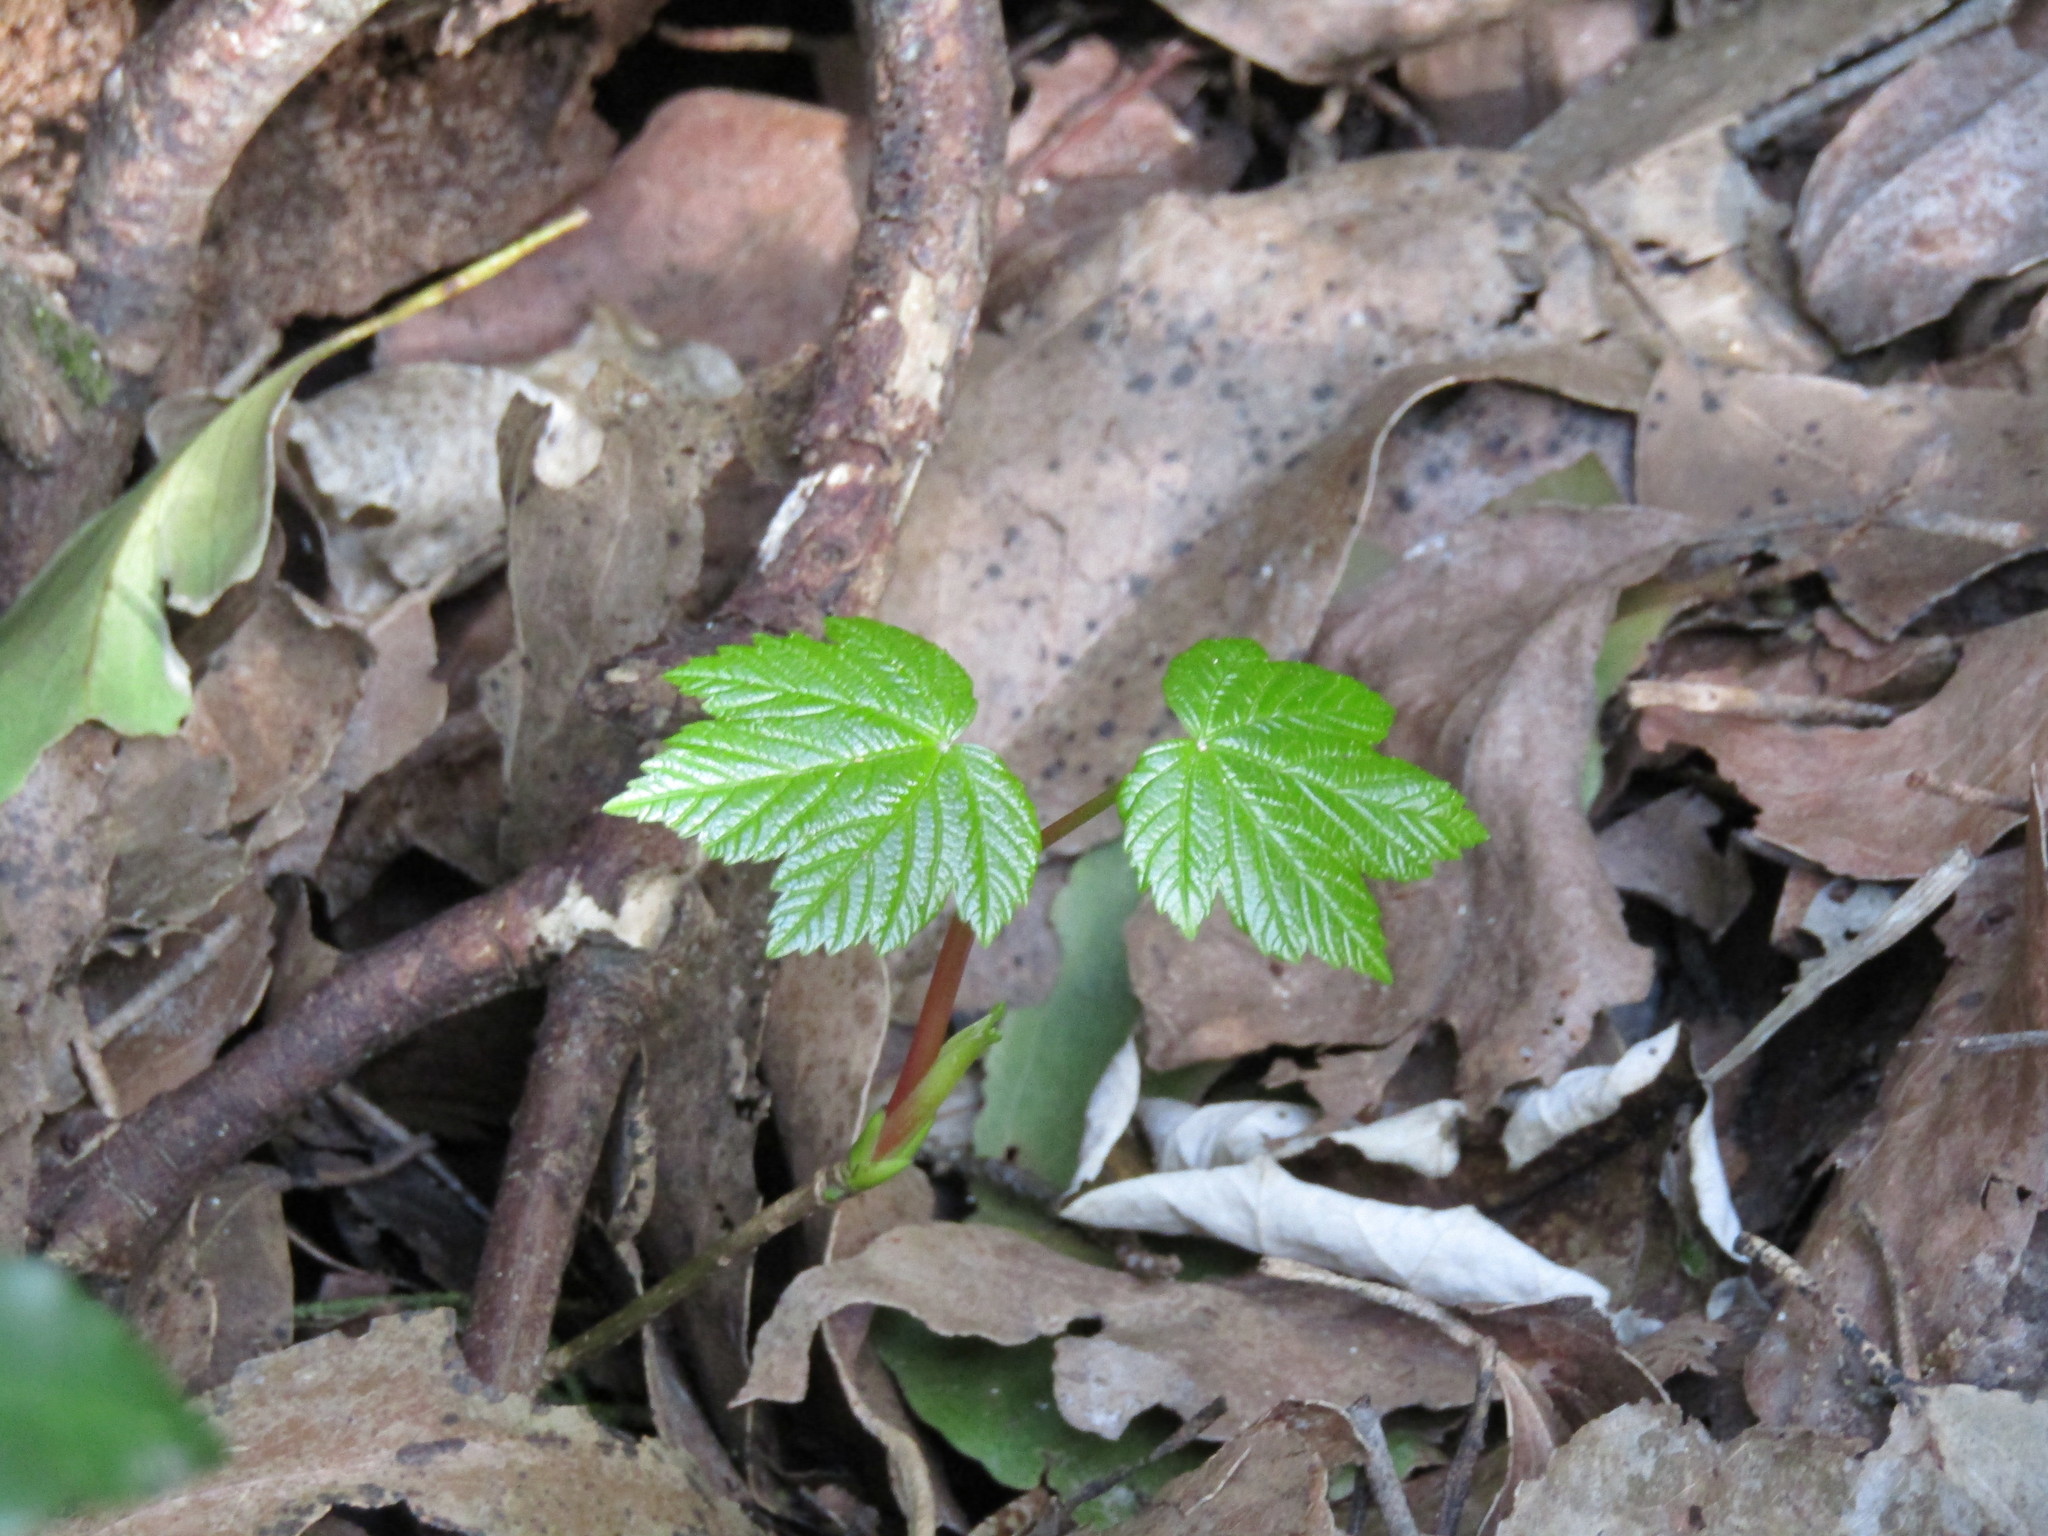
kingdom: Plantae
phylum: Tracheophyta
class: Magnoliopsida
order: Sapindales
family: Sapindaceae
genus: Acer
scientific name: Acer pseudoplatanus
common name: Sycamore
